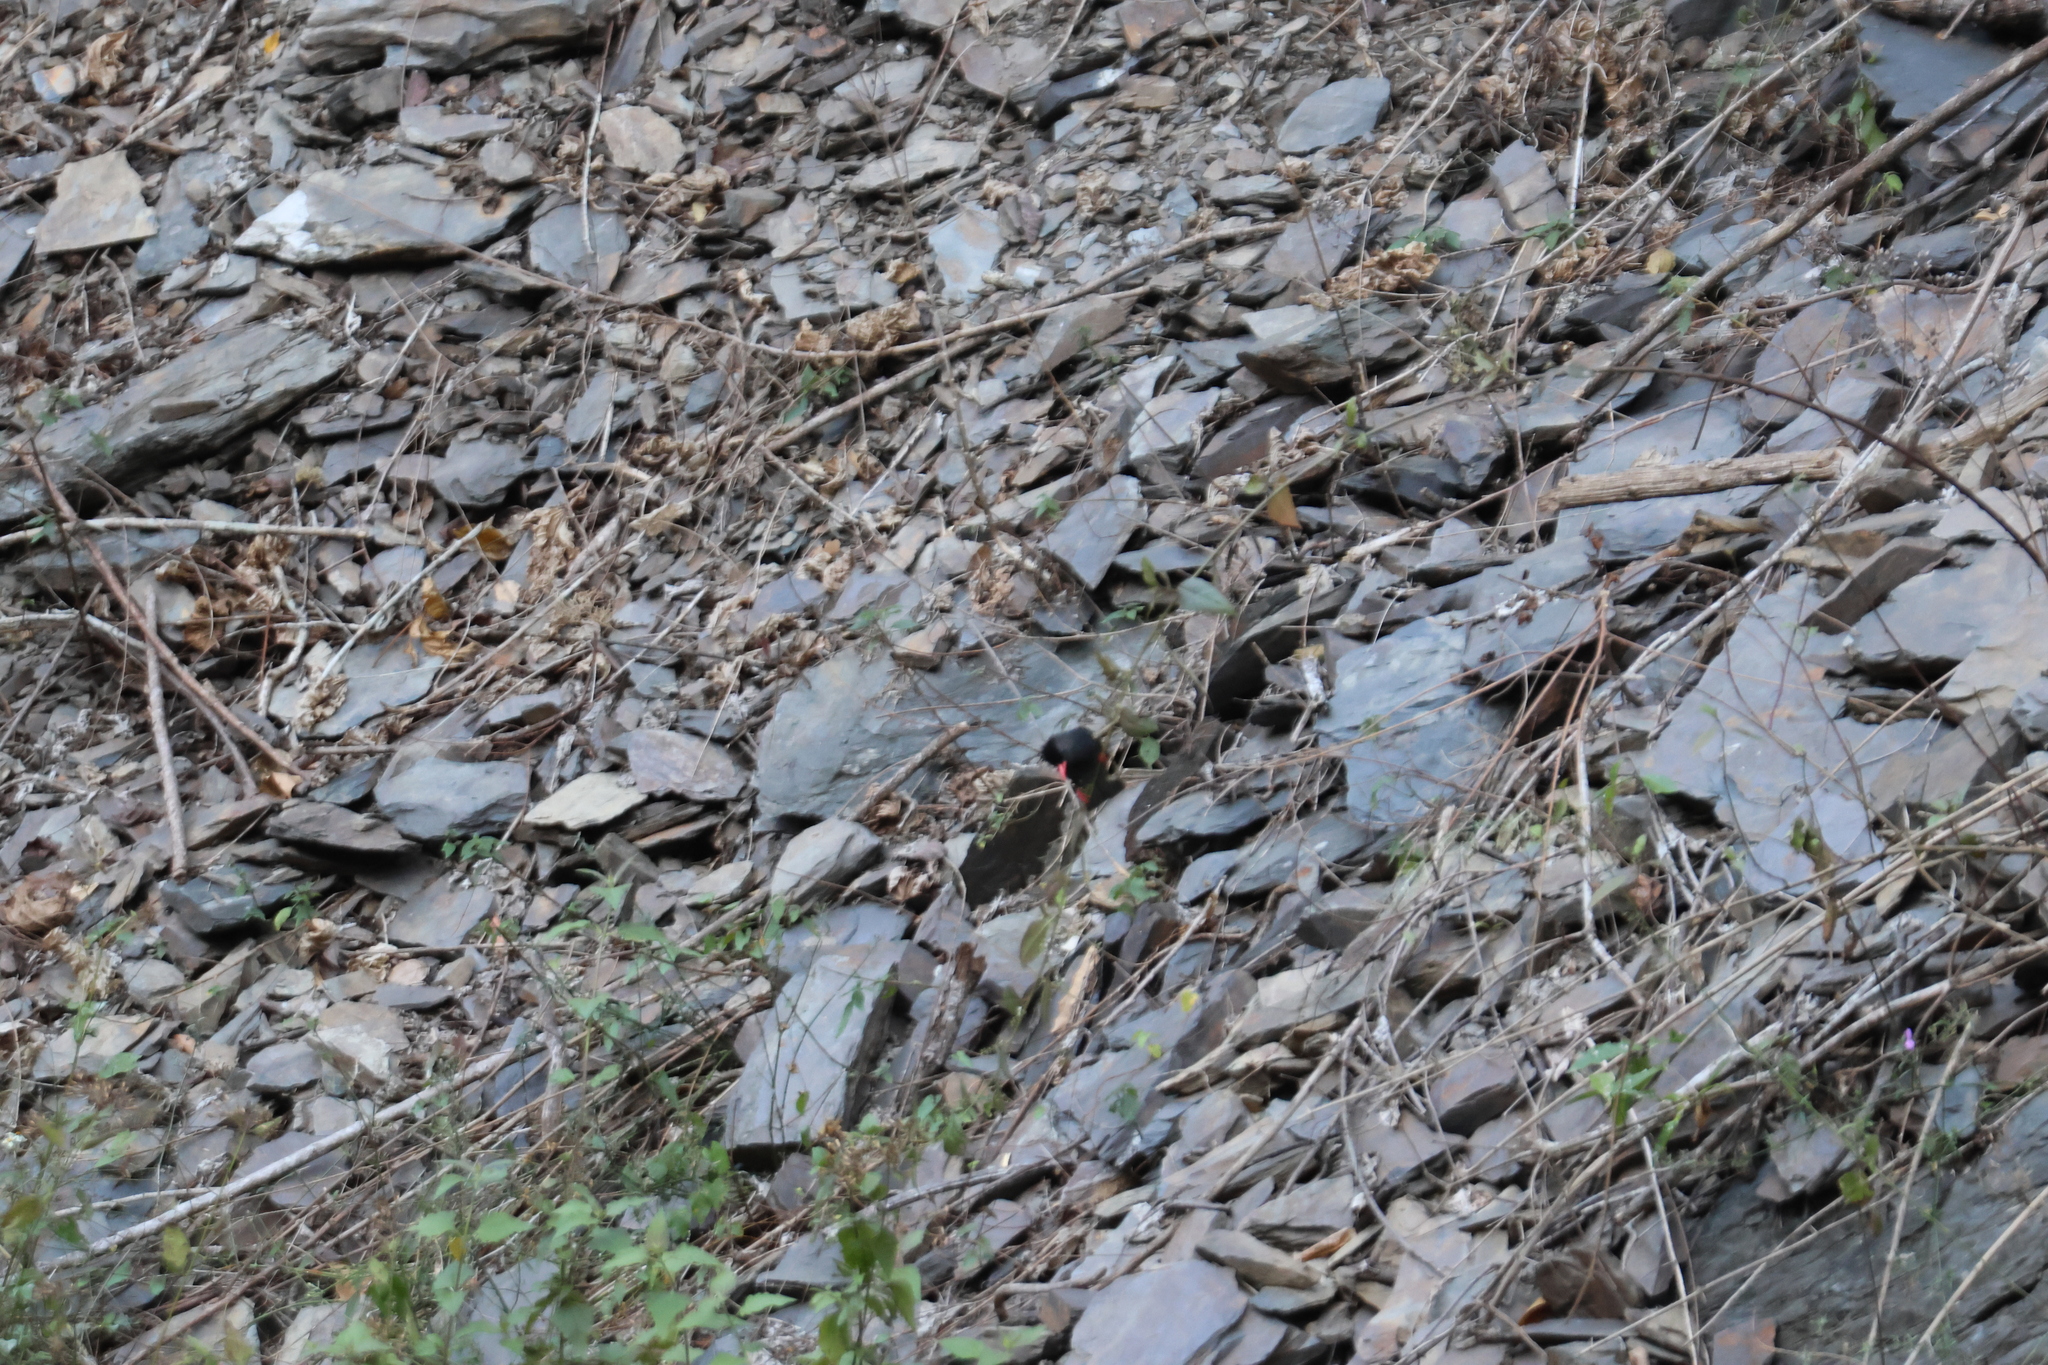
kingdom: Animalia
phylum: Chordata
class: Aves
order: Passeriformes
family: Pycnonotidae
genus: Hypsipetes
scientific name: Hypsipetes leucocephalus
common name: Black bulbul
